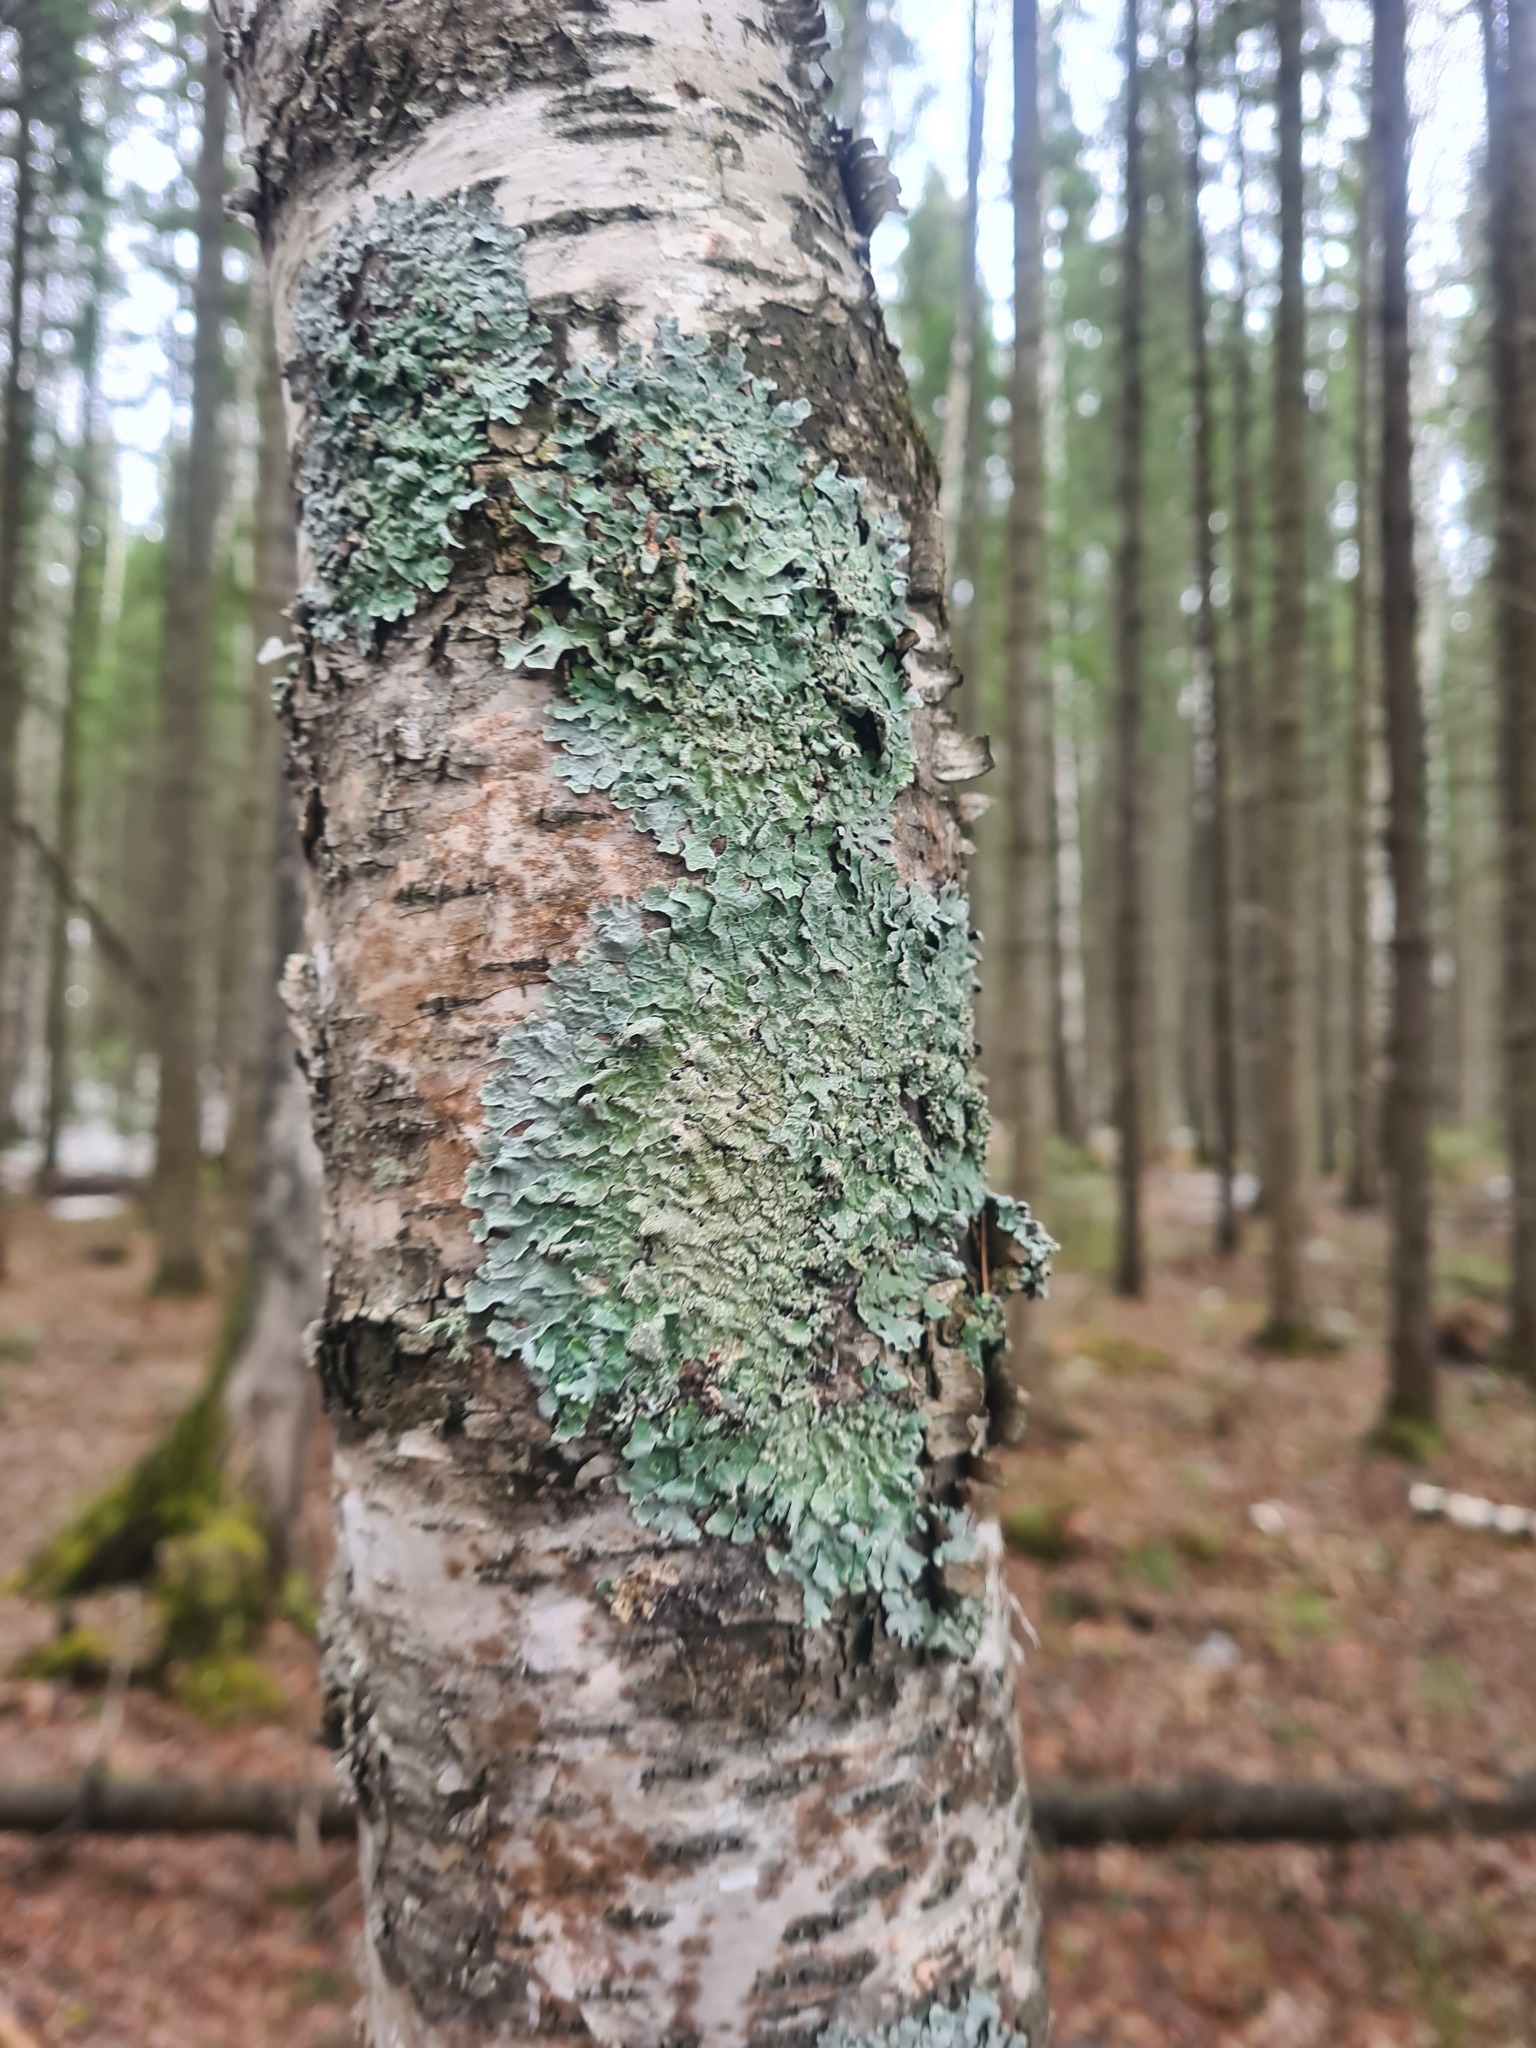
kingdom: Fungi
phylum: Ascomycota
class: Lecanoromycetes
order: Lecanorales
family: Parmeliaceae
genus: Parmelia
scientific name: Parmelia sulcata
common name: Netted shield lichen
